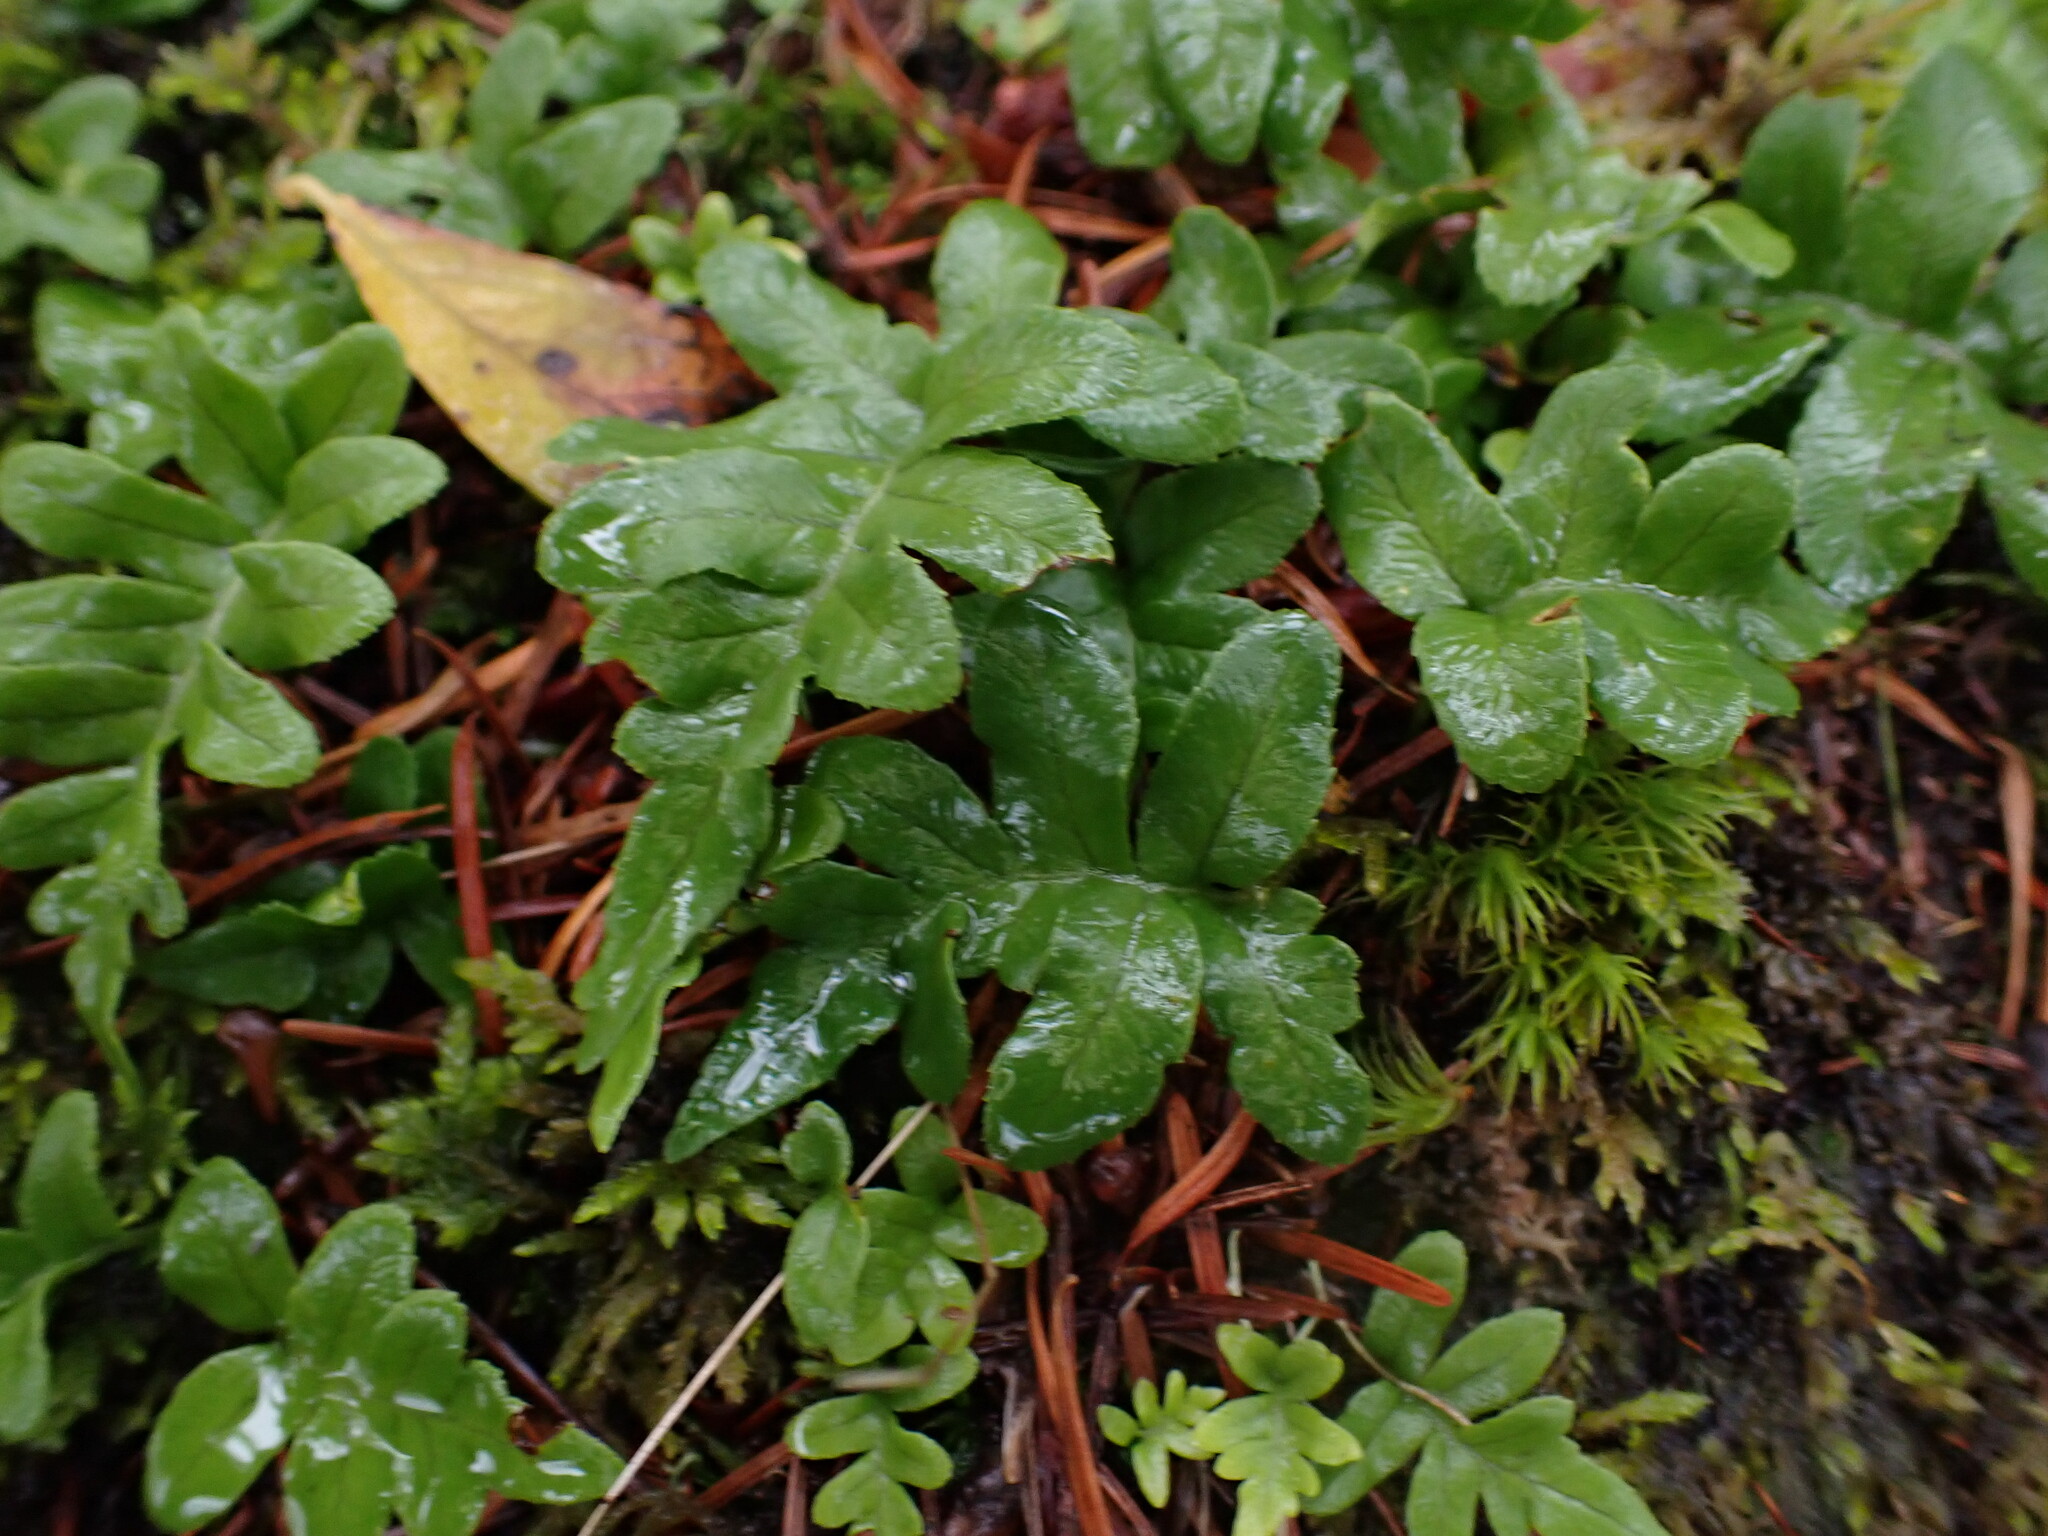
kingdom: Plantae
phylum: Tracheophyta
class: Polypodiopsida
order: Polypodiales
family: Polypodiaceae
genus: Polypodium
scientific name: Polypodium glycyrrhiza
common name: Licorice fern
